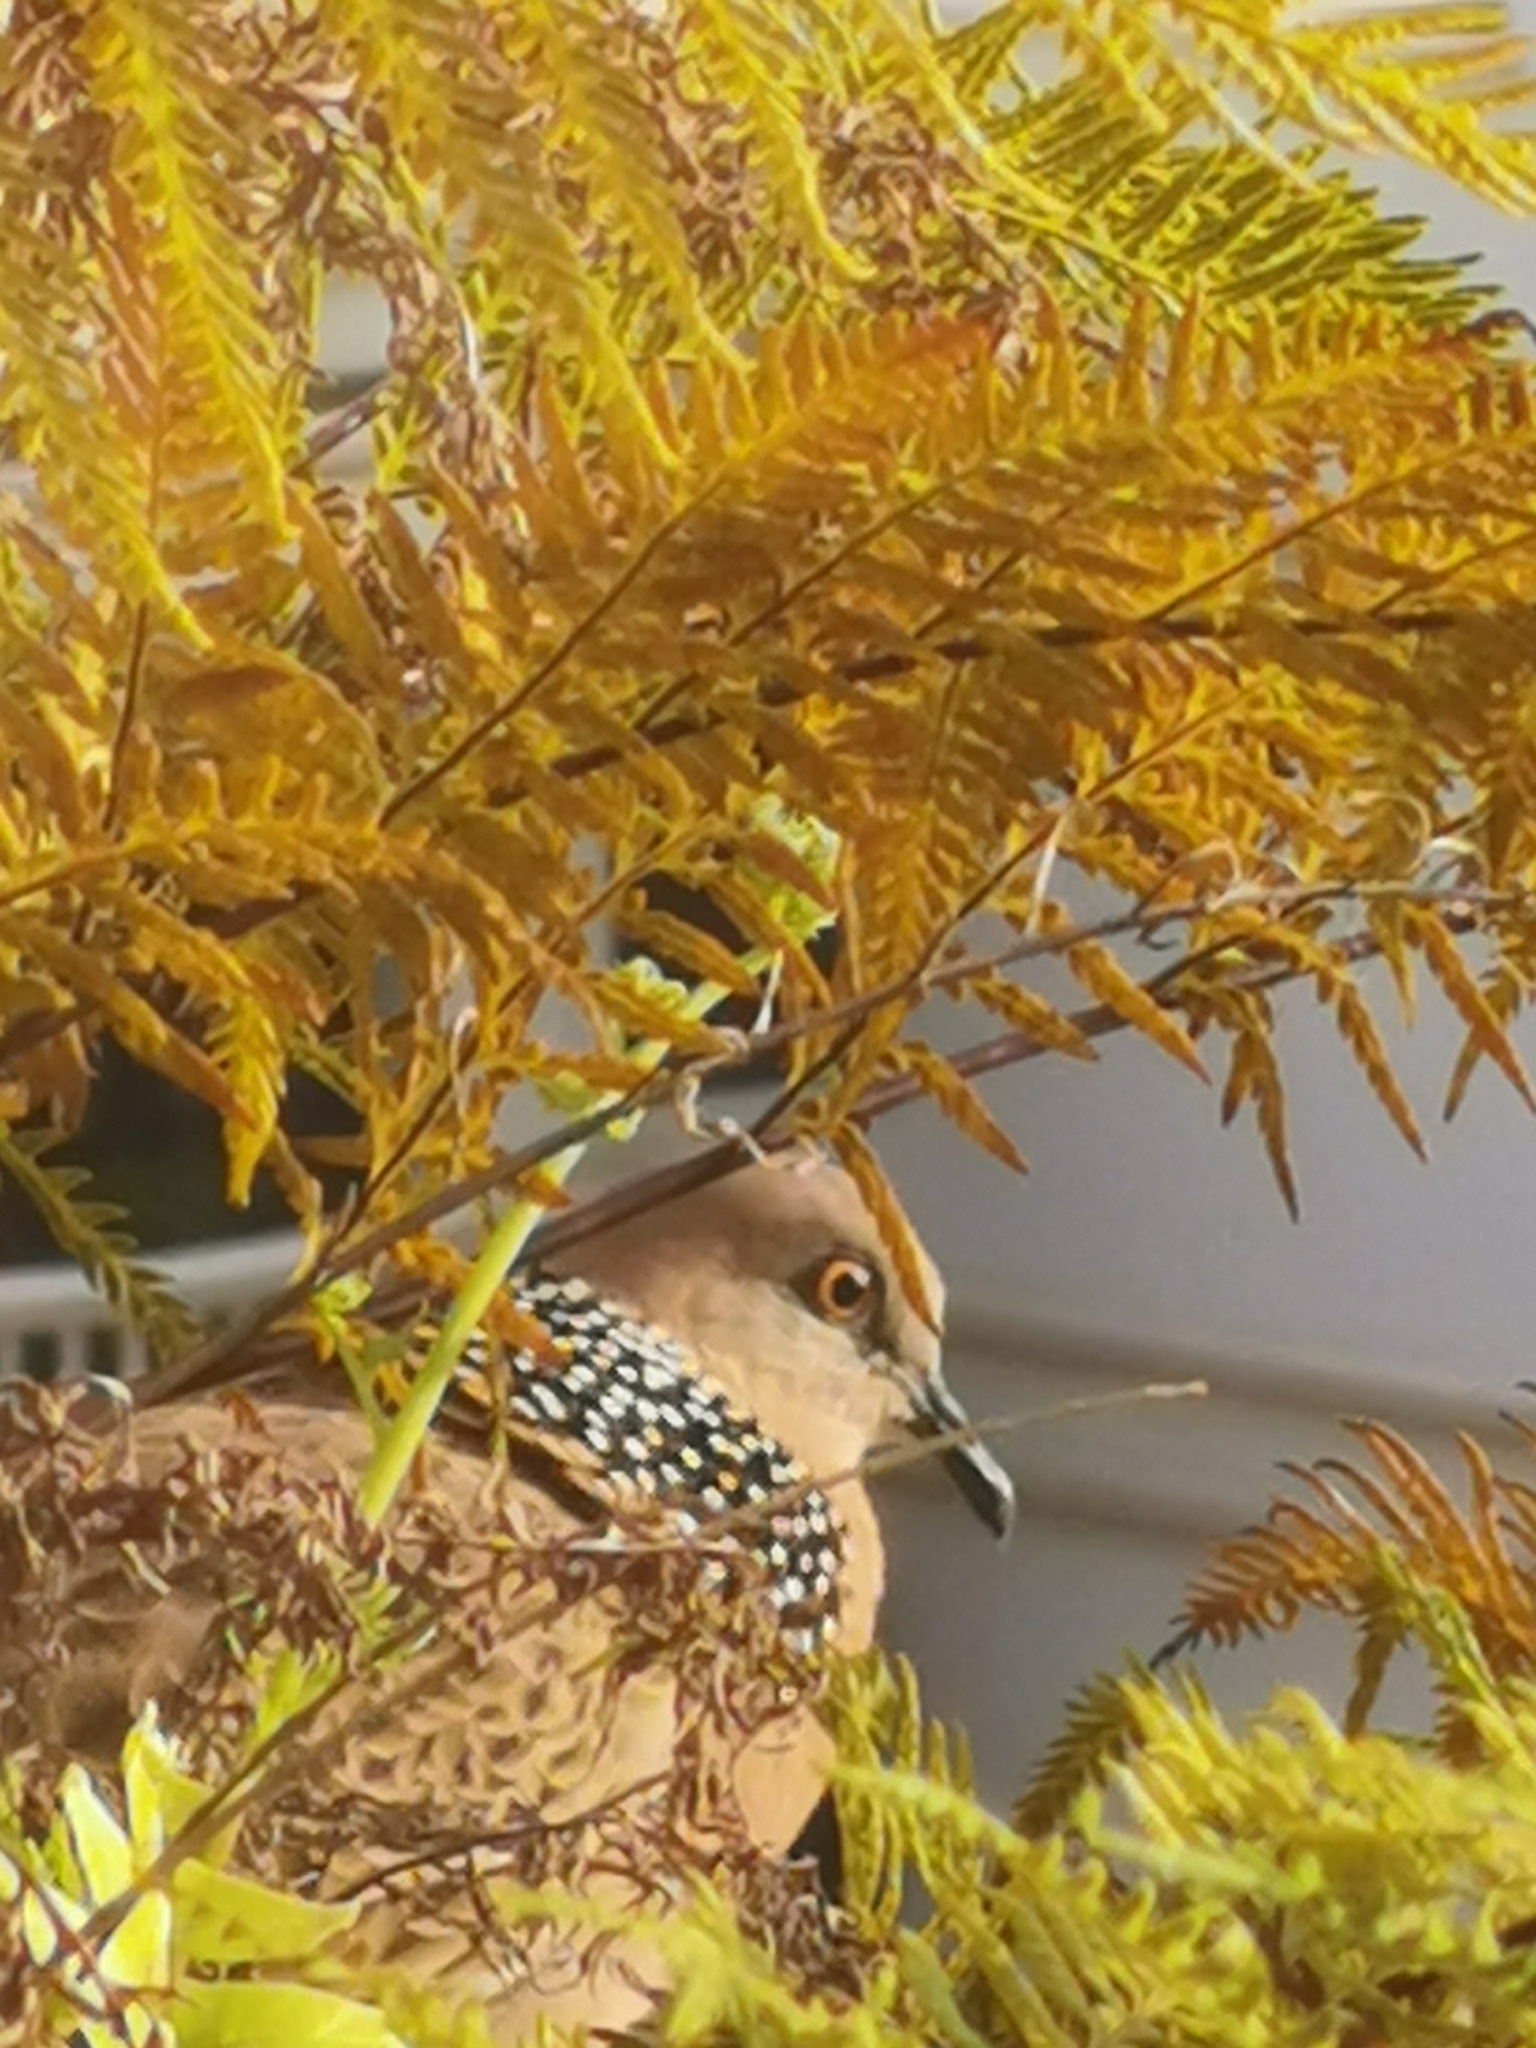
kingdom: Animalia
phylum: Chordata
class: Aves
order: Columbiformes
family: Columbidae
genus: Spilopelia
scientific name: Spilopelia chinensis
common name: Spotted dove
